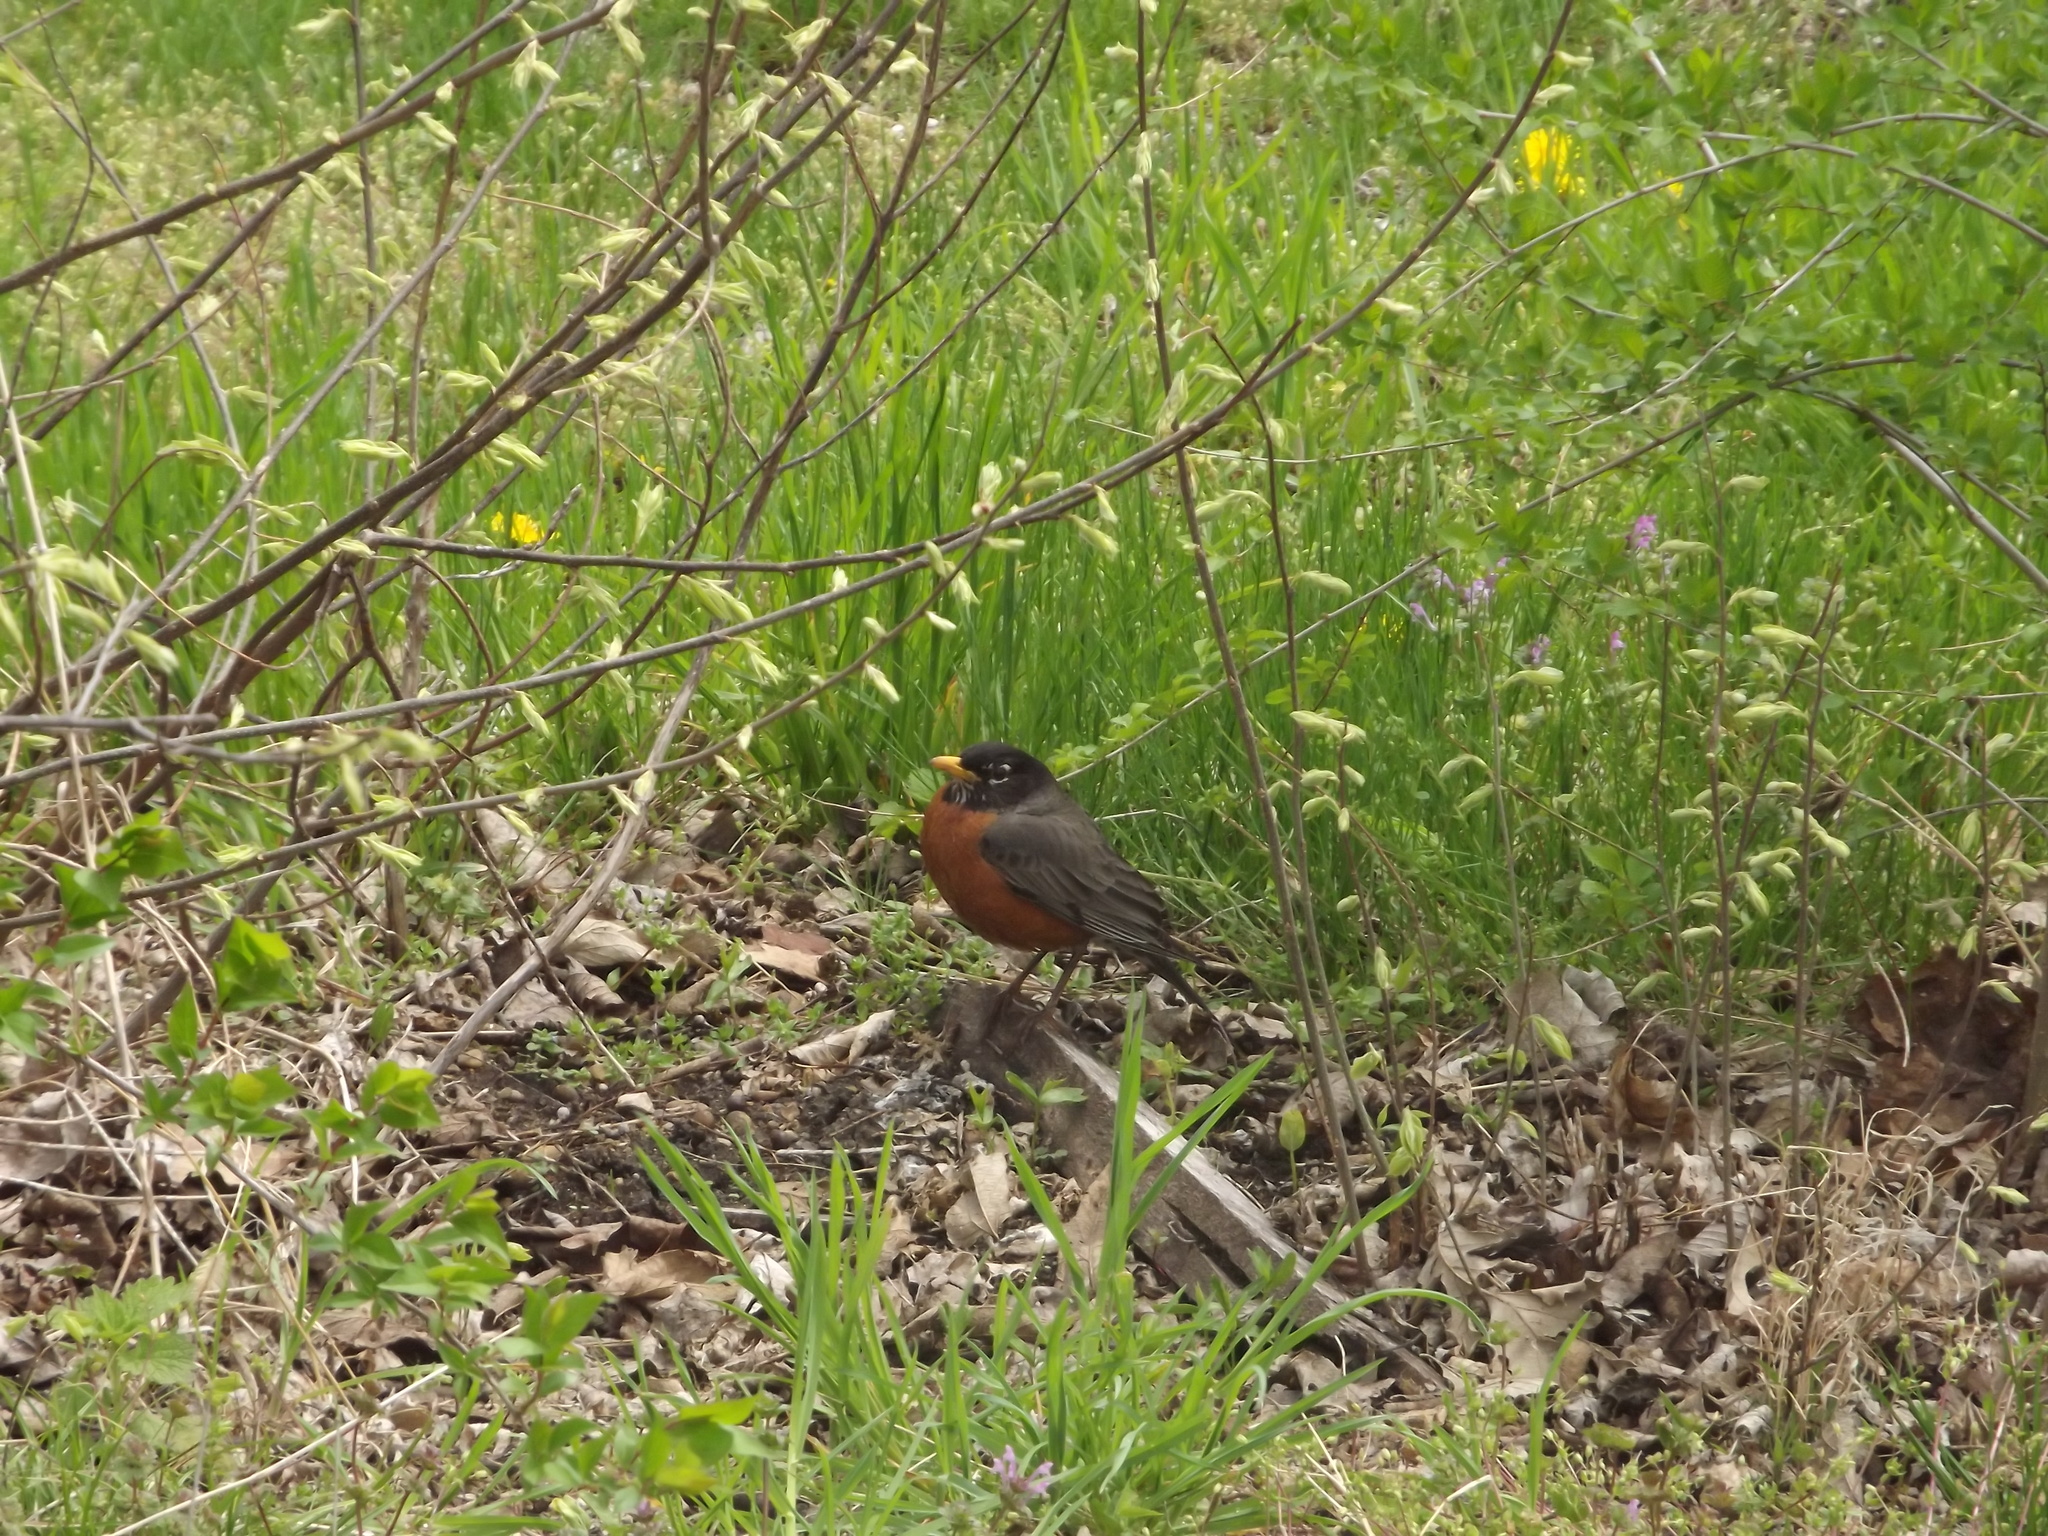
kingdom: Animalia
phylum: Chordata
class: Aves
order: Passeriformes
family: Turdidae
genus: Turdus
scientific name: Turdus migratorius
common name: American robin
